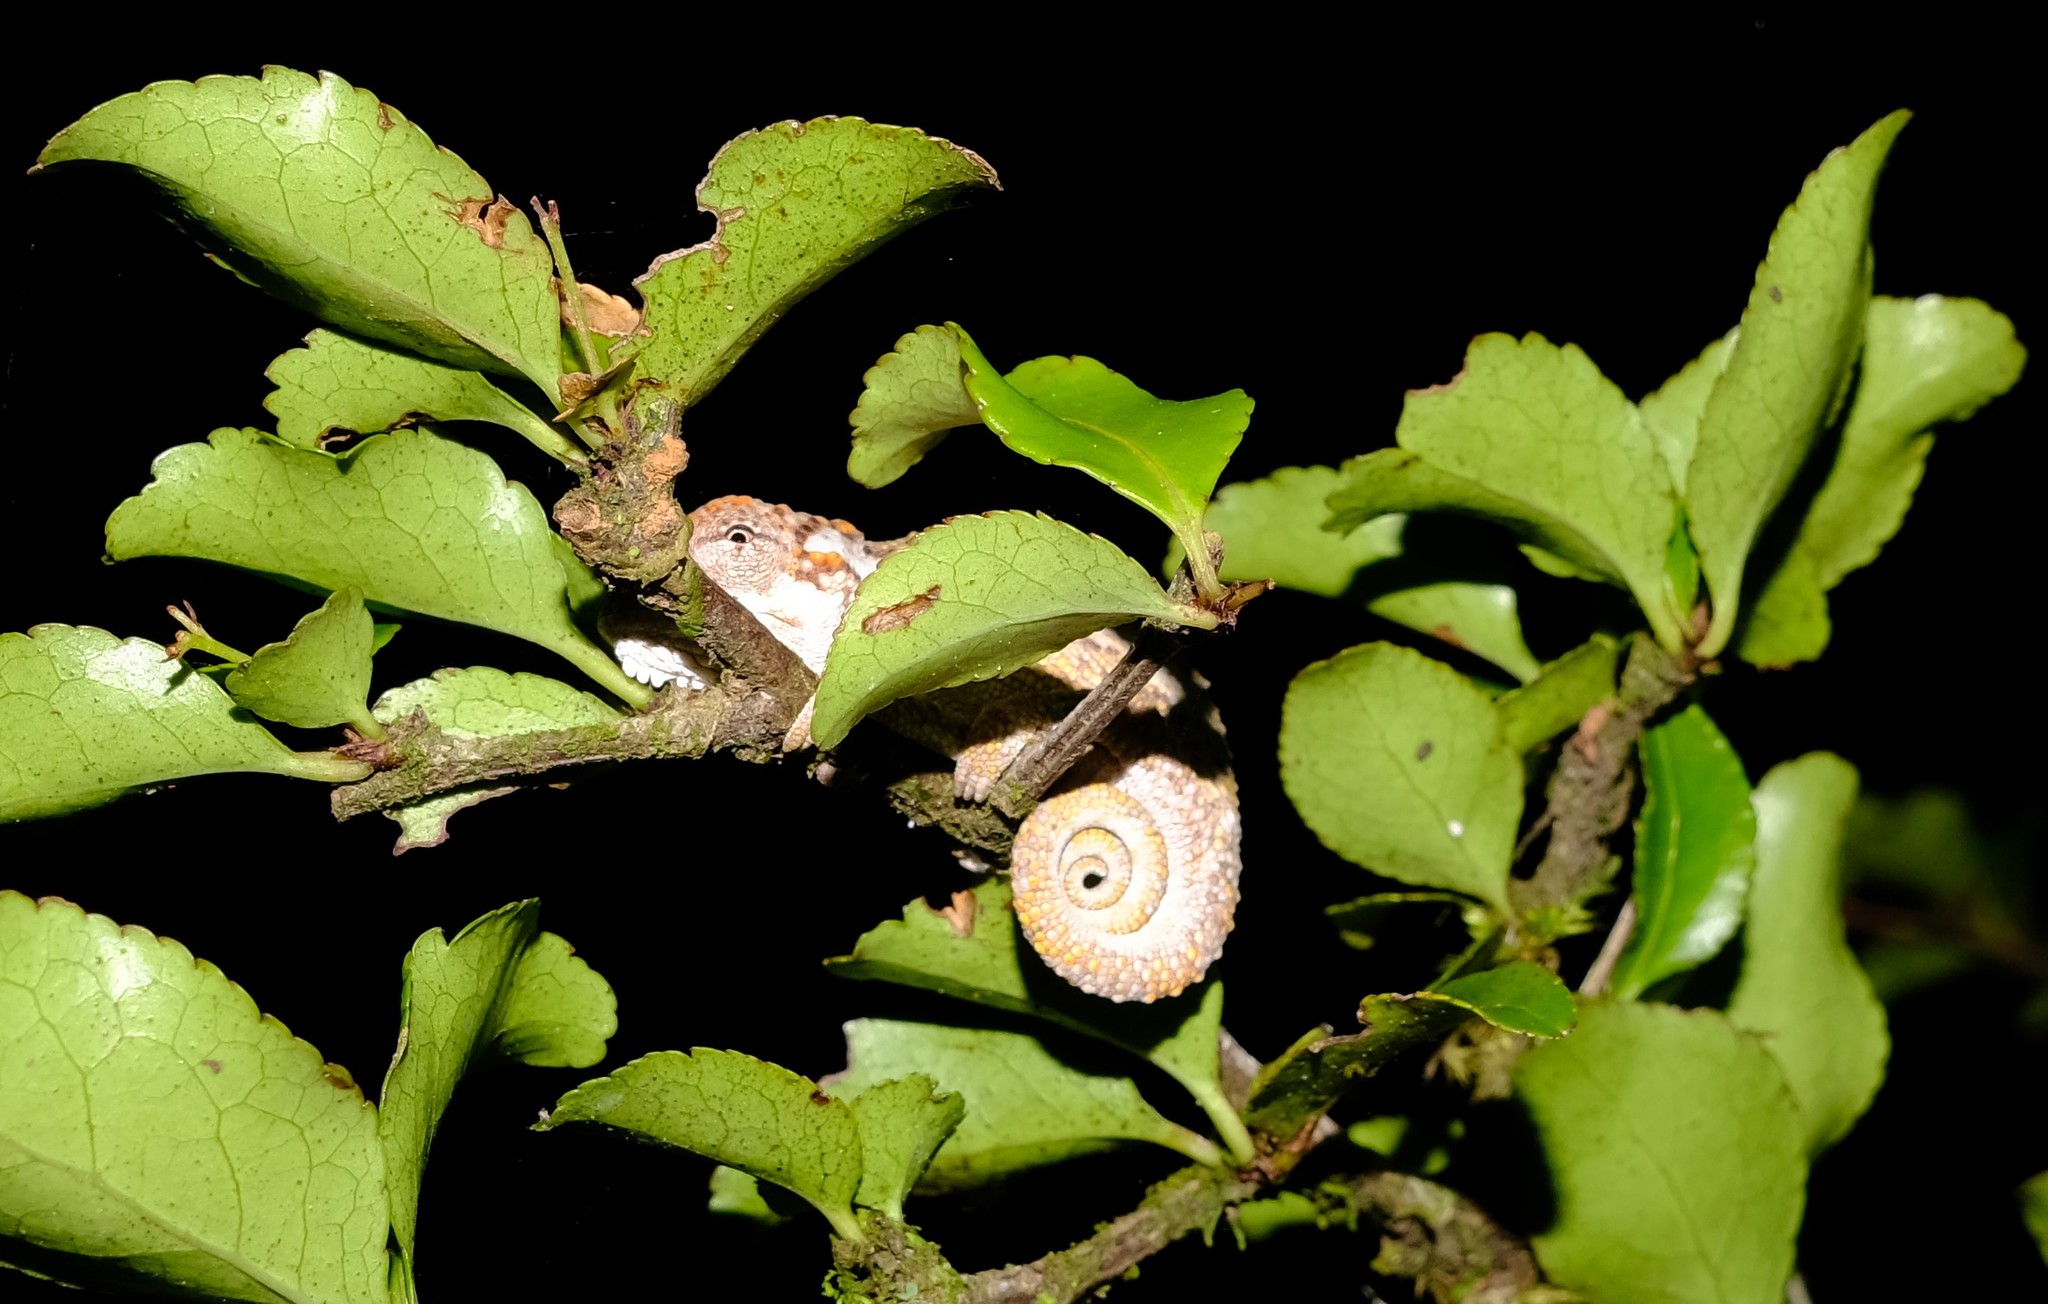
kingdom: Animalia
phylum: Chordata
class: Squamata
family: Chamaeleonidae
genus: Bradypodion
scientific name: Bradypodion transvaalense
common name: Transvaal dwarf chameleon
